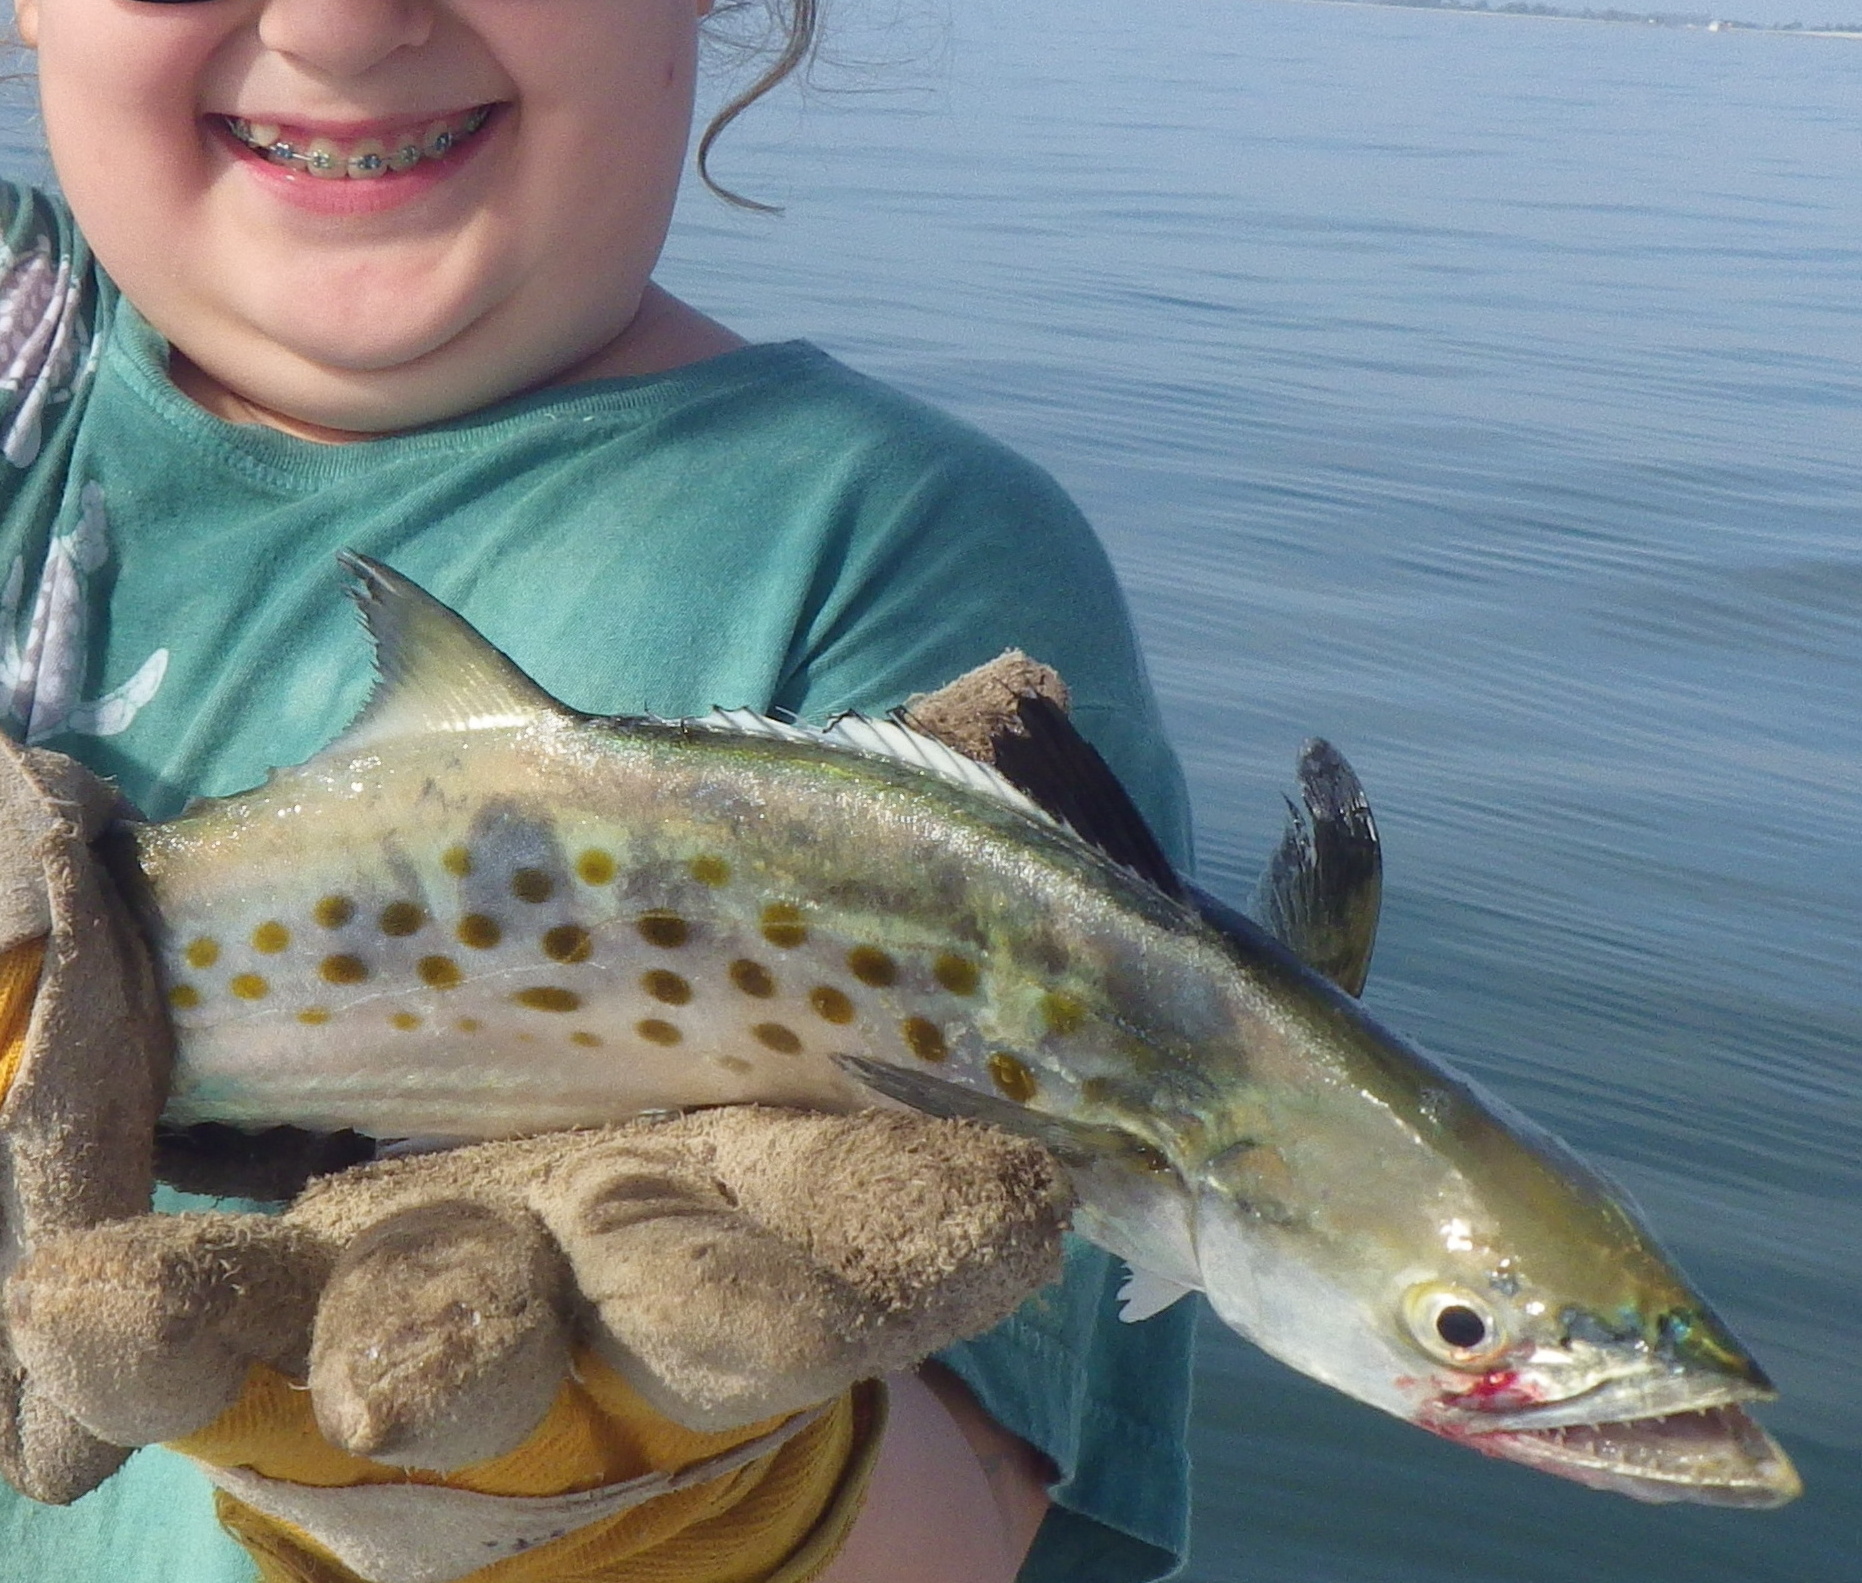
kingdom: Animalia
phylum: Chordata
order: Perciformes
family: Scombridae
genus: Scomberomorus
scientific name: Scomberomorus maculatus
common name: Spanish mackerel
